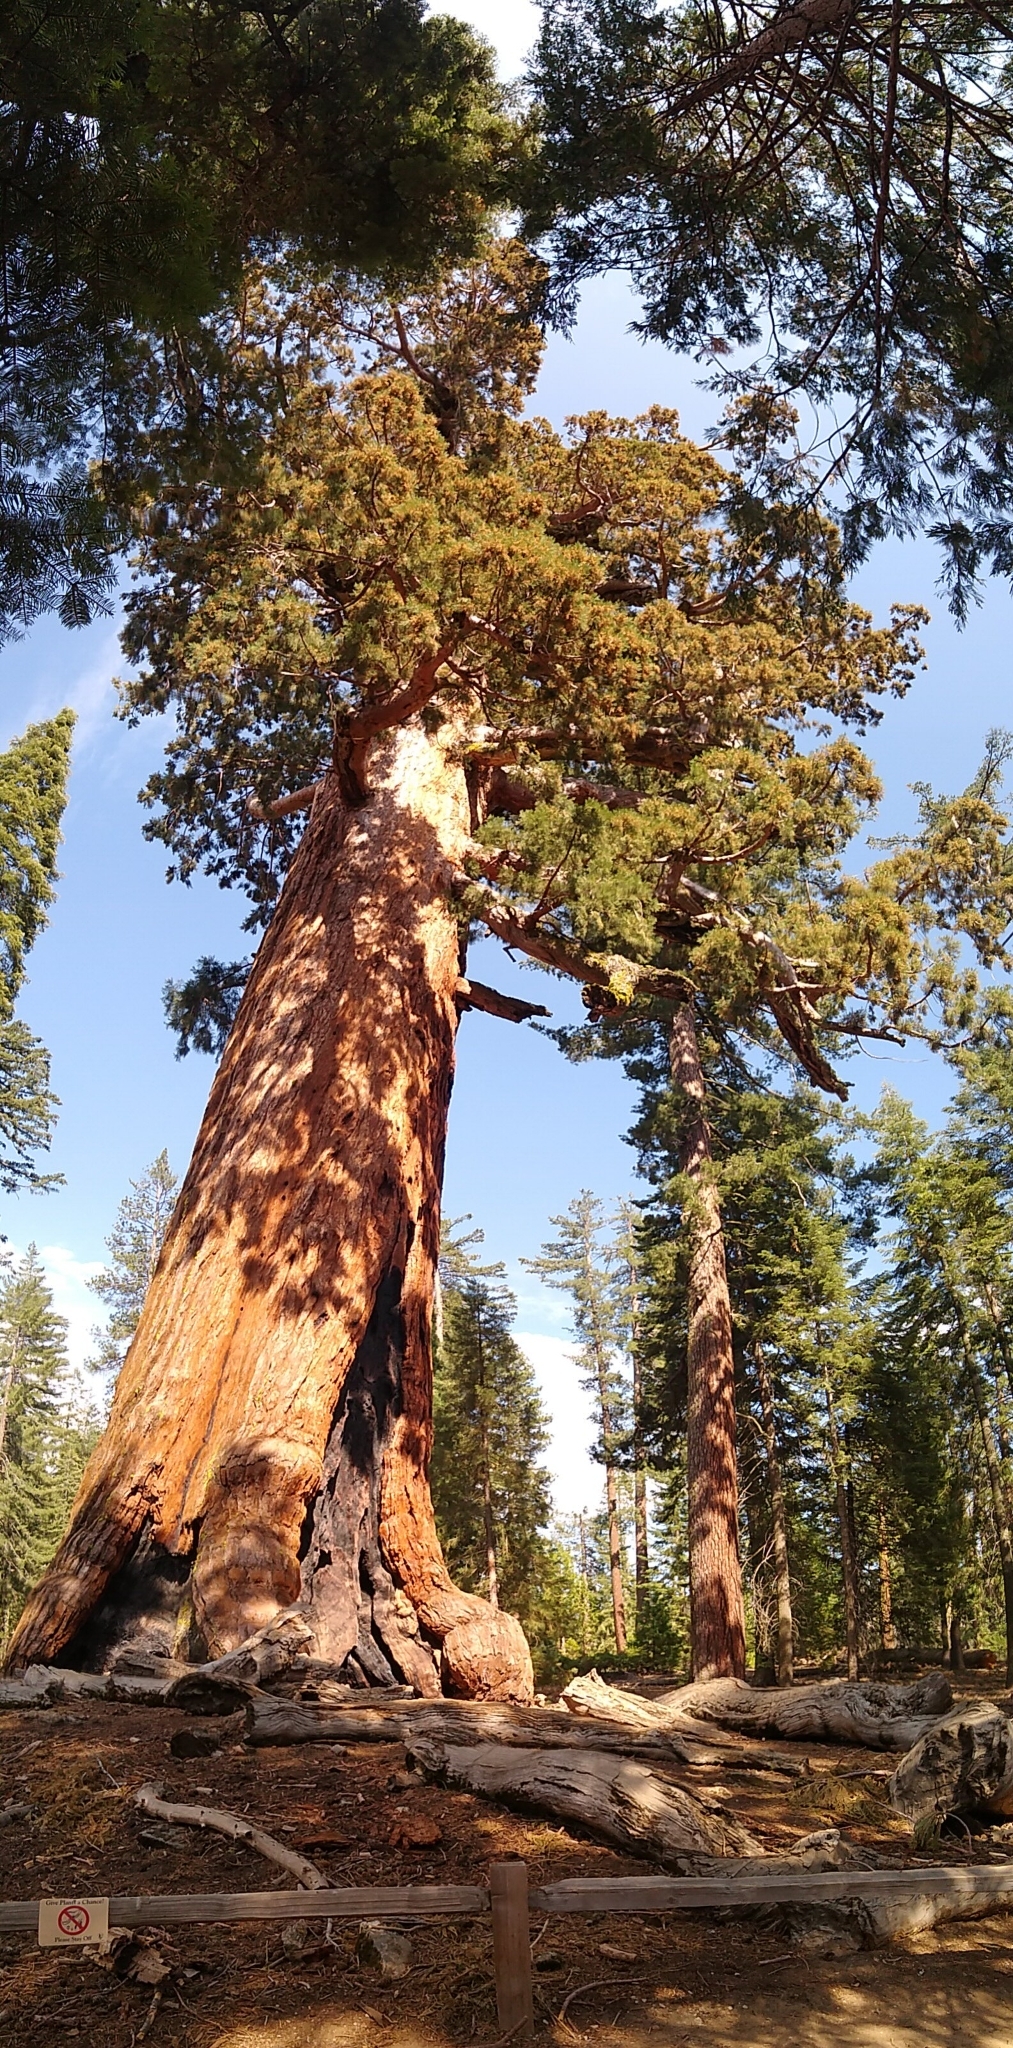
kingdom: Plantae
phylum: Tracheophyta
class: Pinopsida
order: Pinales
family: Cupressaceae
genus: Sequoiadendron
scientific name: Sequoiadendron giganteum
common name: Wellingtonia
